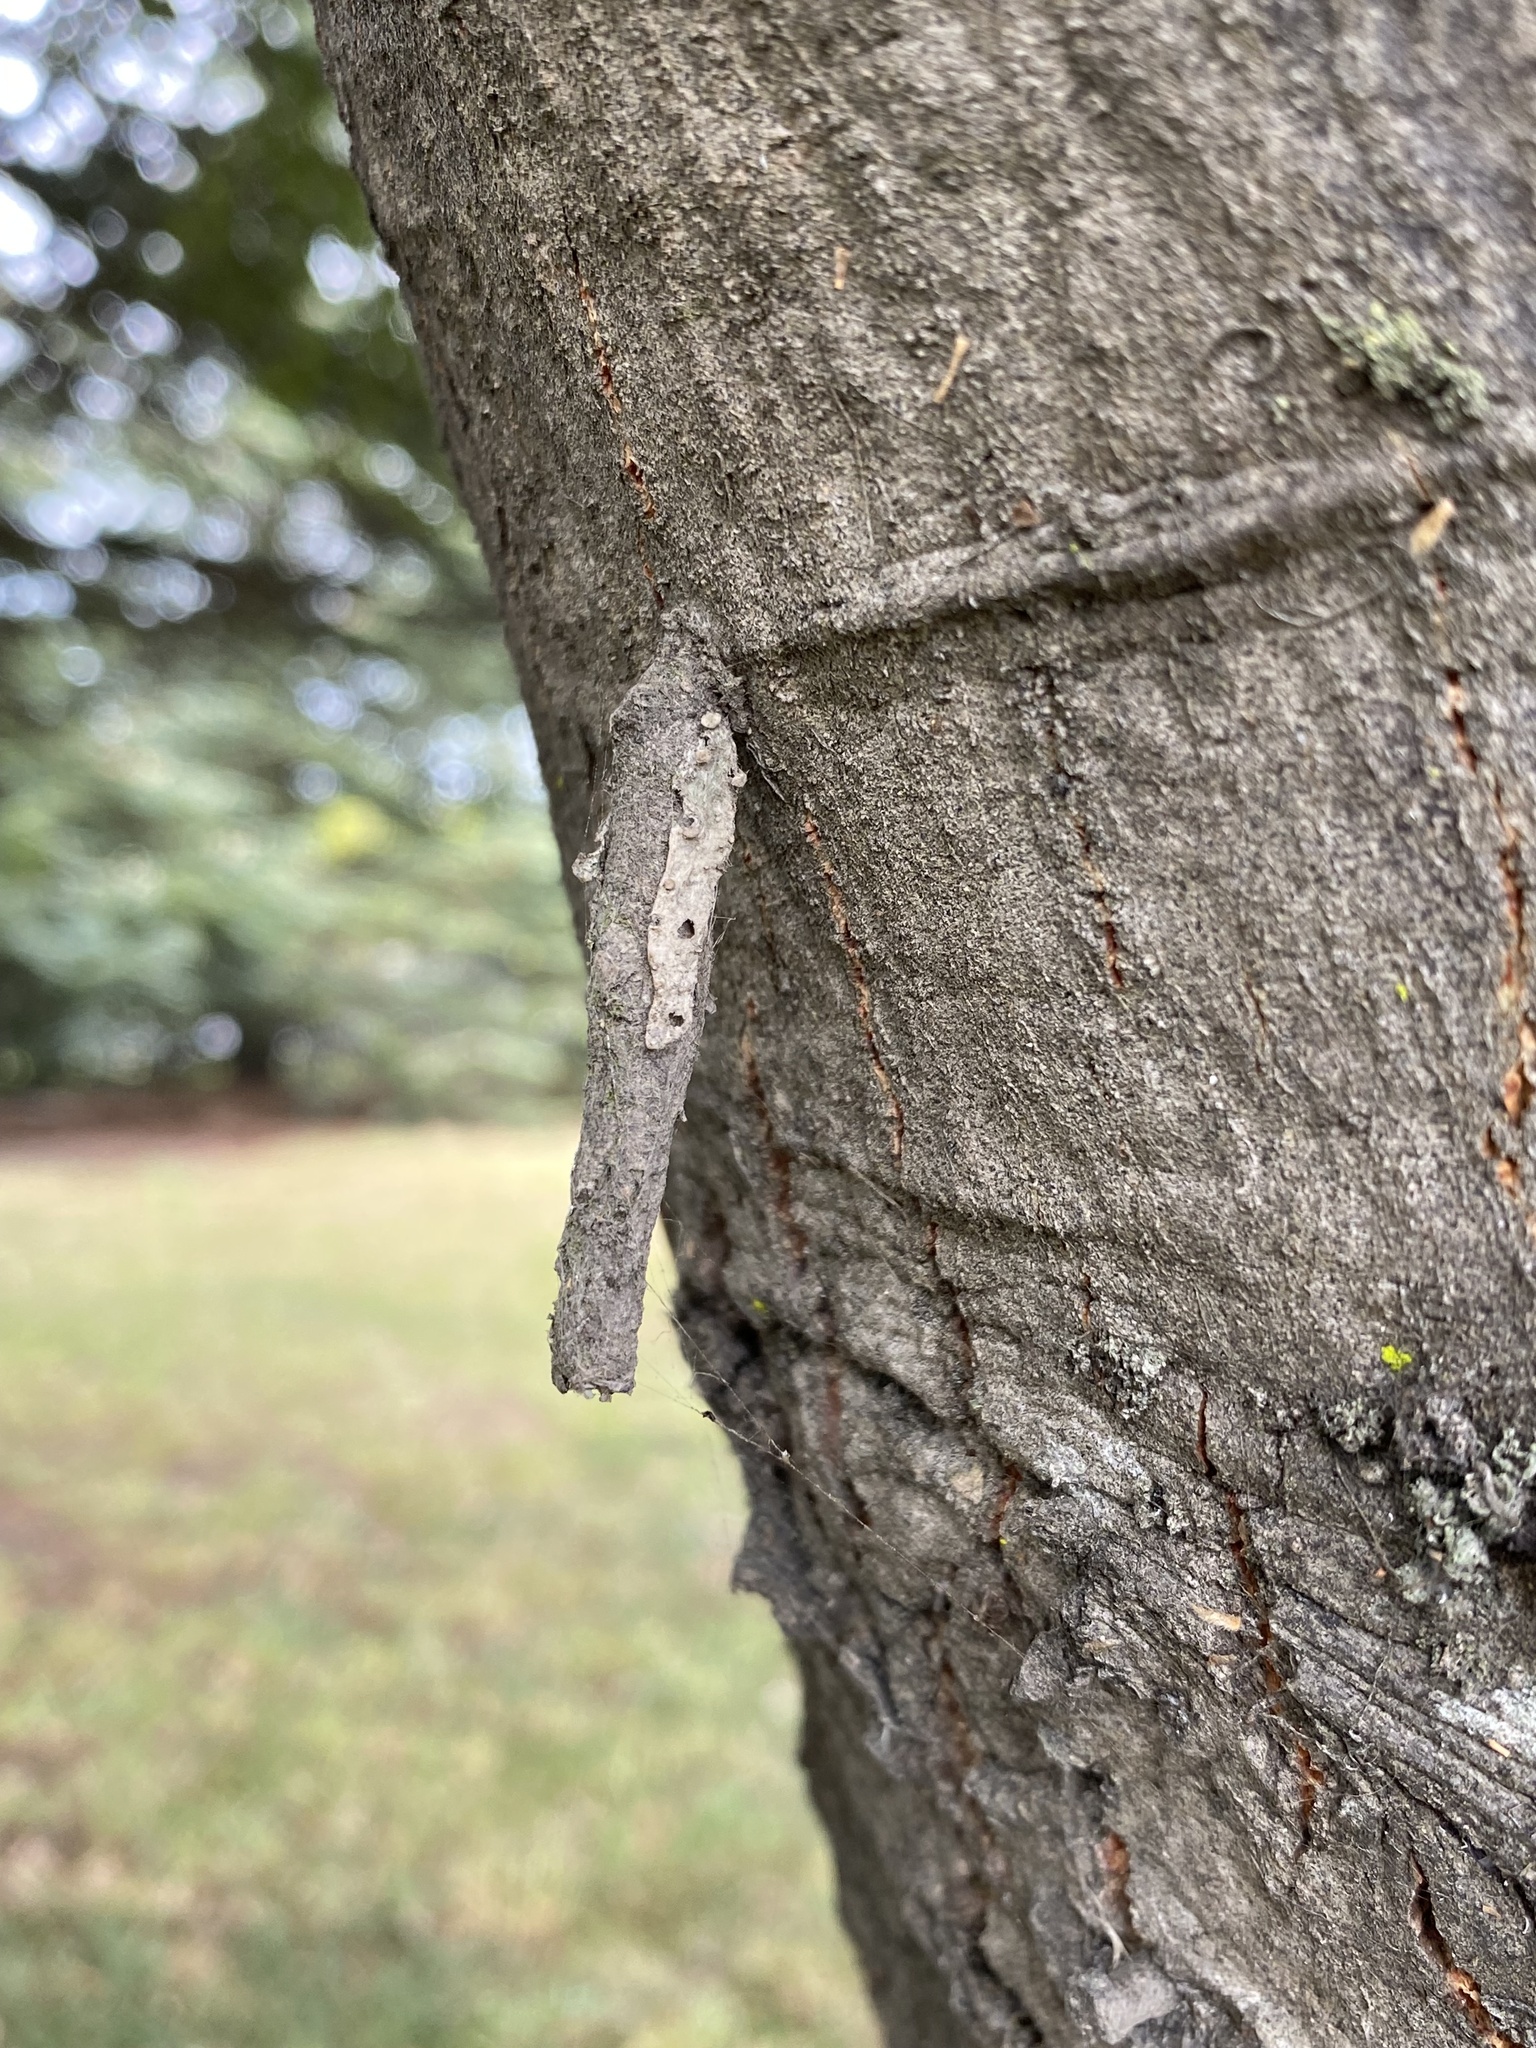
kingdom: Animalia
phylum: Arthropoda
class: Insecta
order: Lepidoptera
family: Psychidae
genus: Liothula
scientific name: Liothula omnivora
